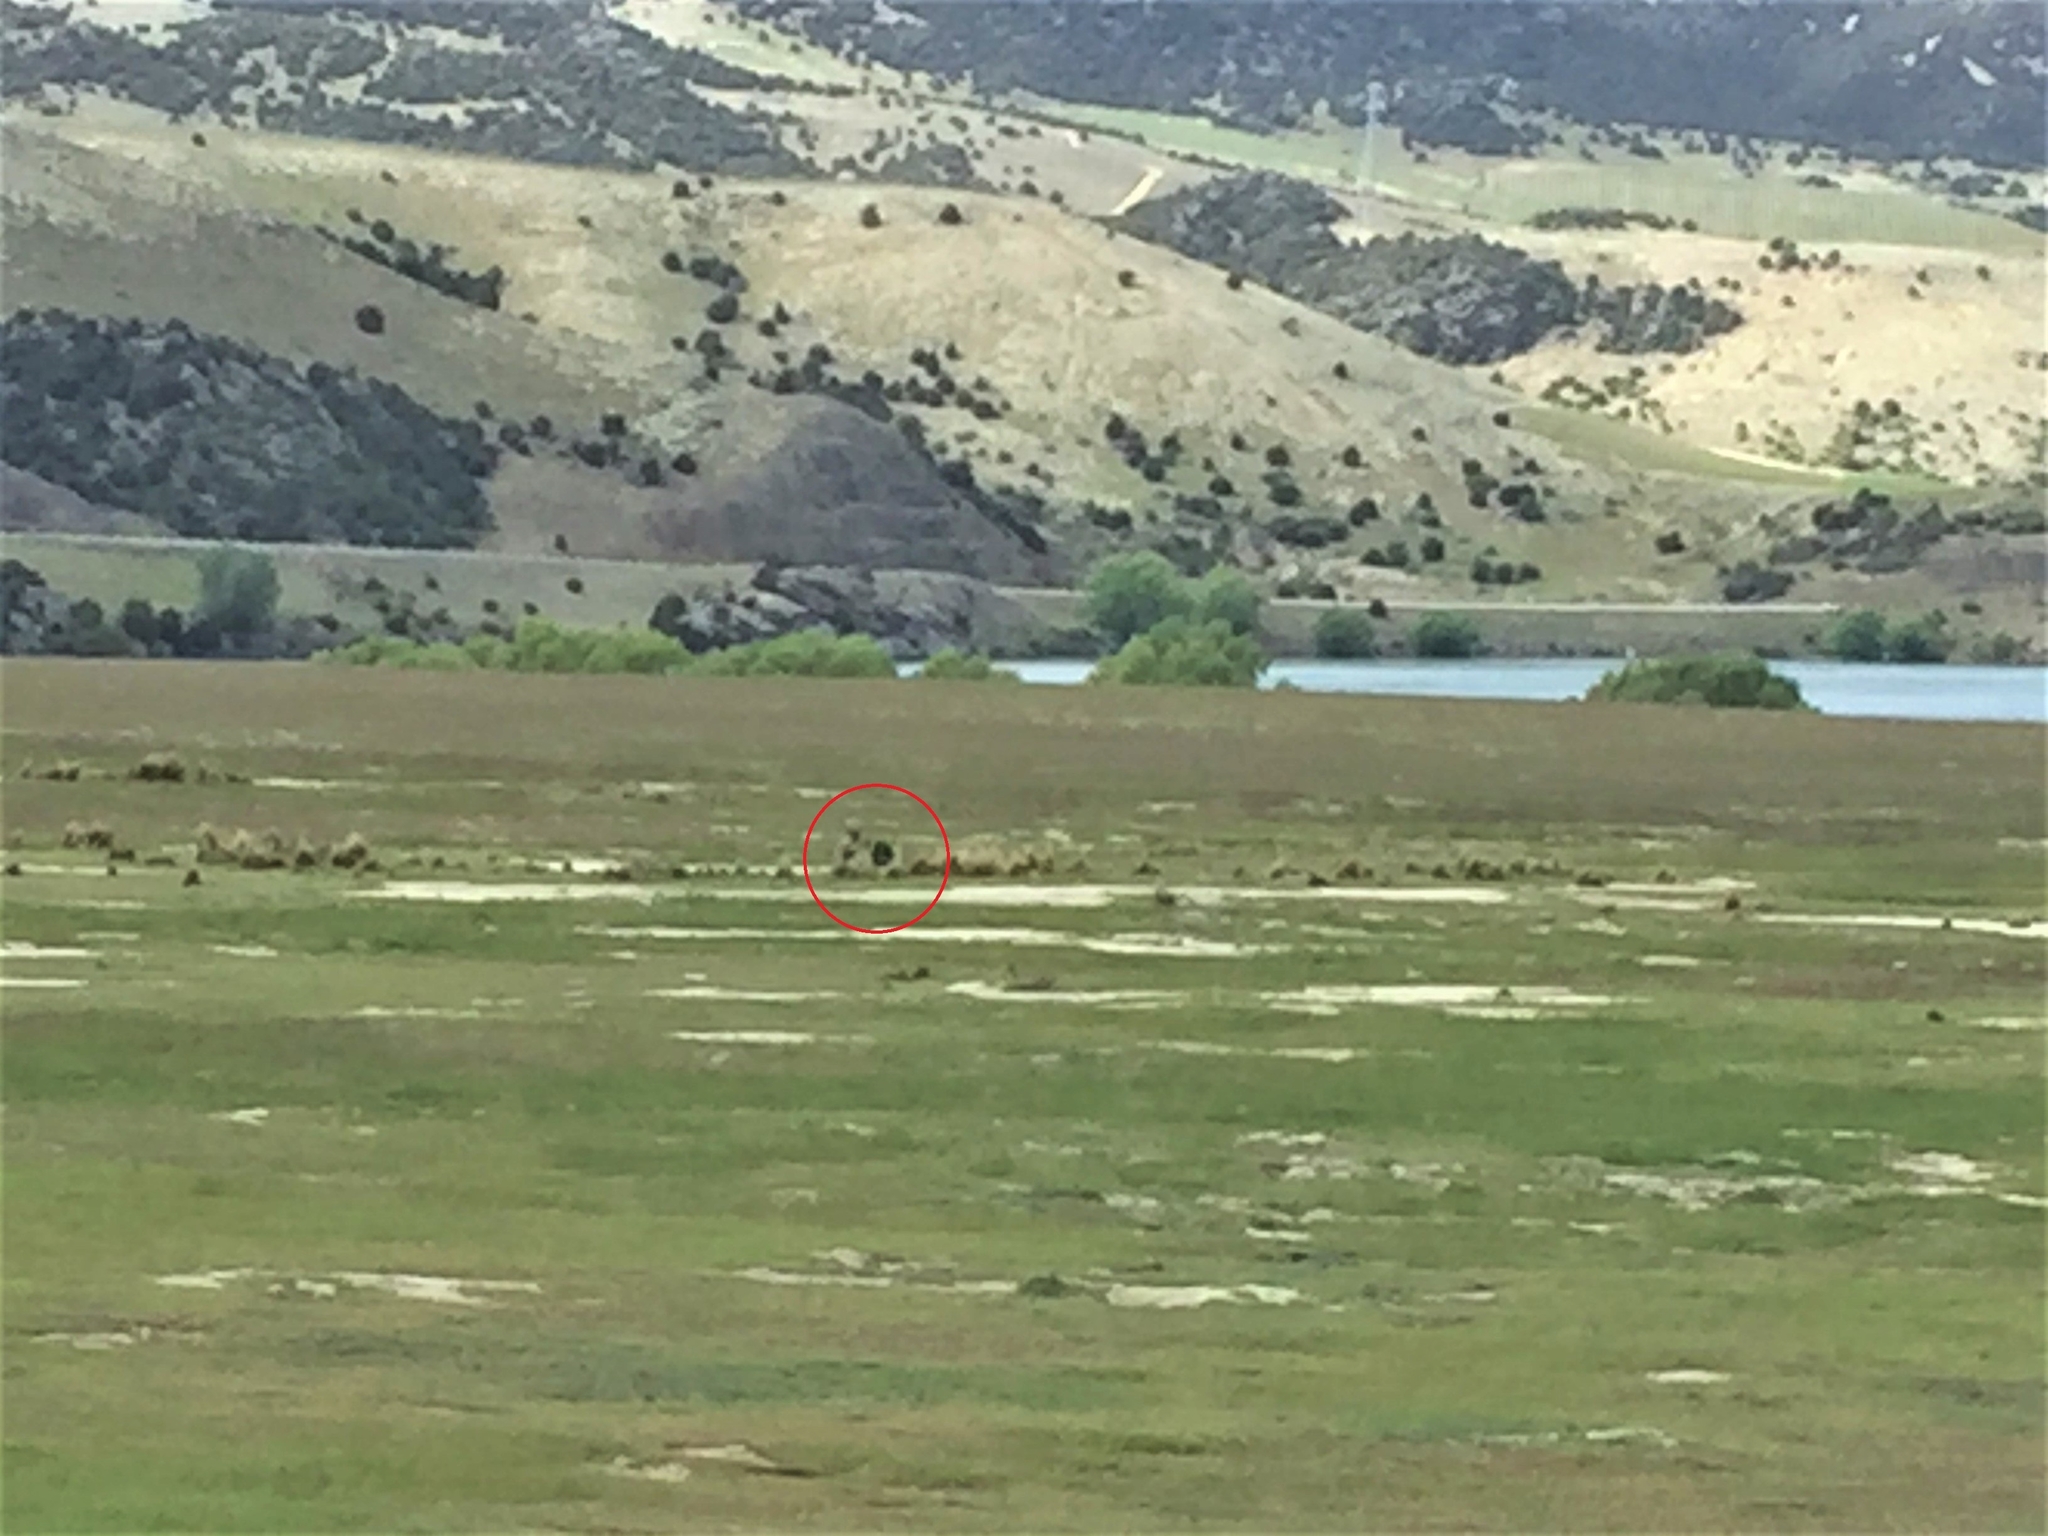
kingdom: Plantae
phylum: Tracheophyta
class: Magnoliopsida
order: Asterales
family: Asteraceae
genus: Craspedia
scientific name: Craspedia
